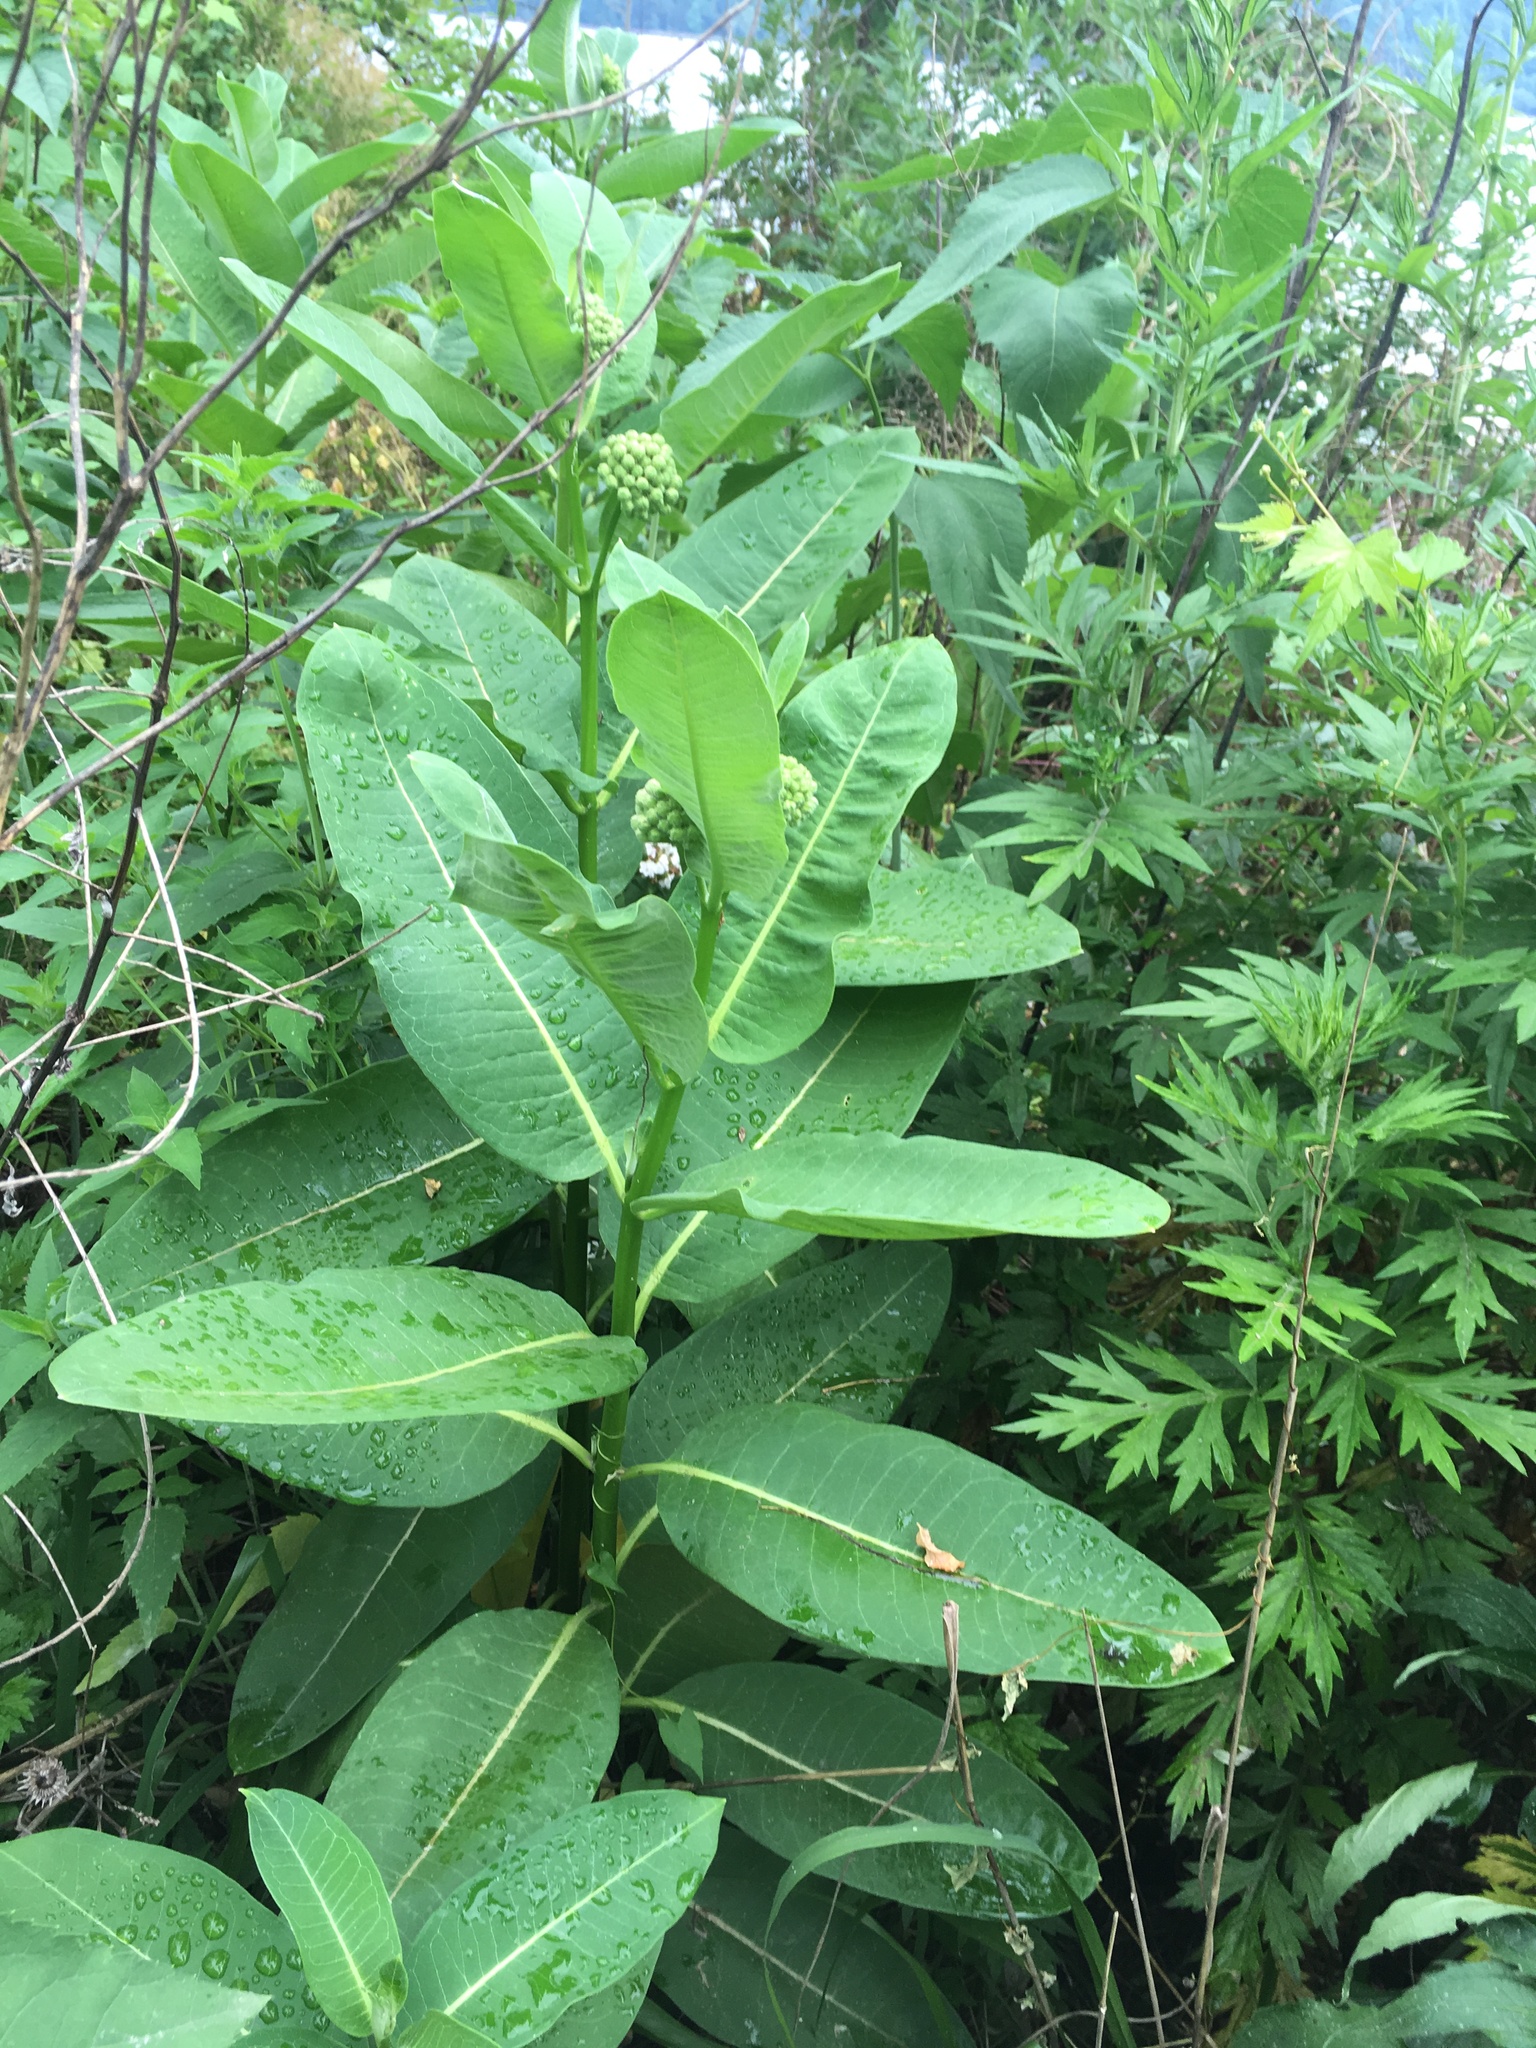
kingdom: Plantae
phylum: Tracheophyta
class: Magnoliopsida
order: Gentianales
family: Apocynaceae
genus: Asclepias
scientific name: Asclepias syriaca
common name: Common milkweed
